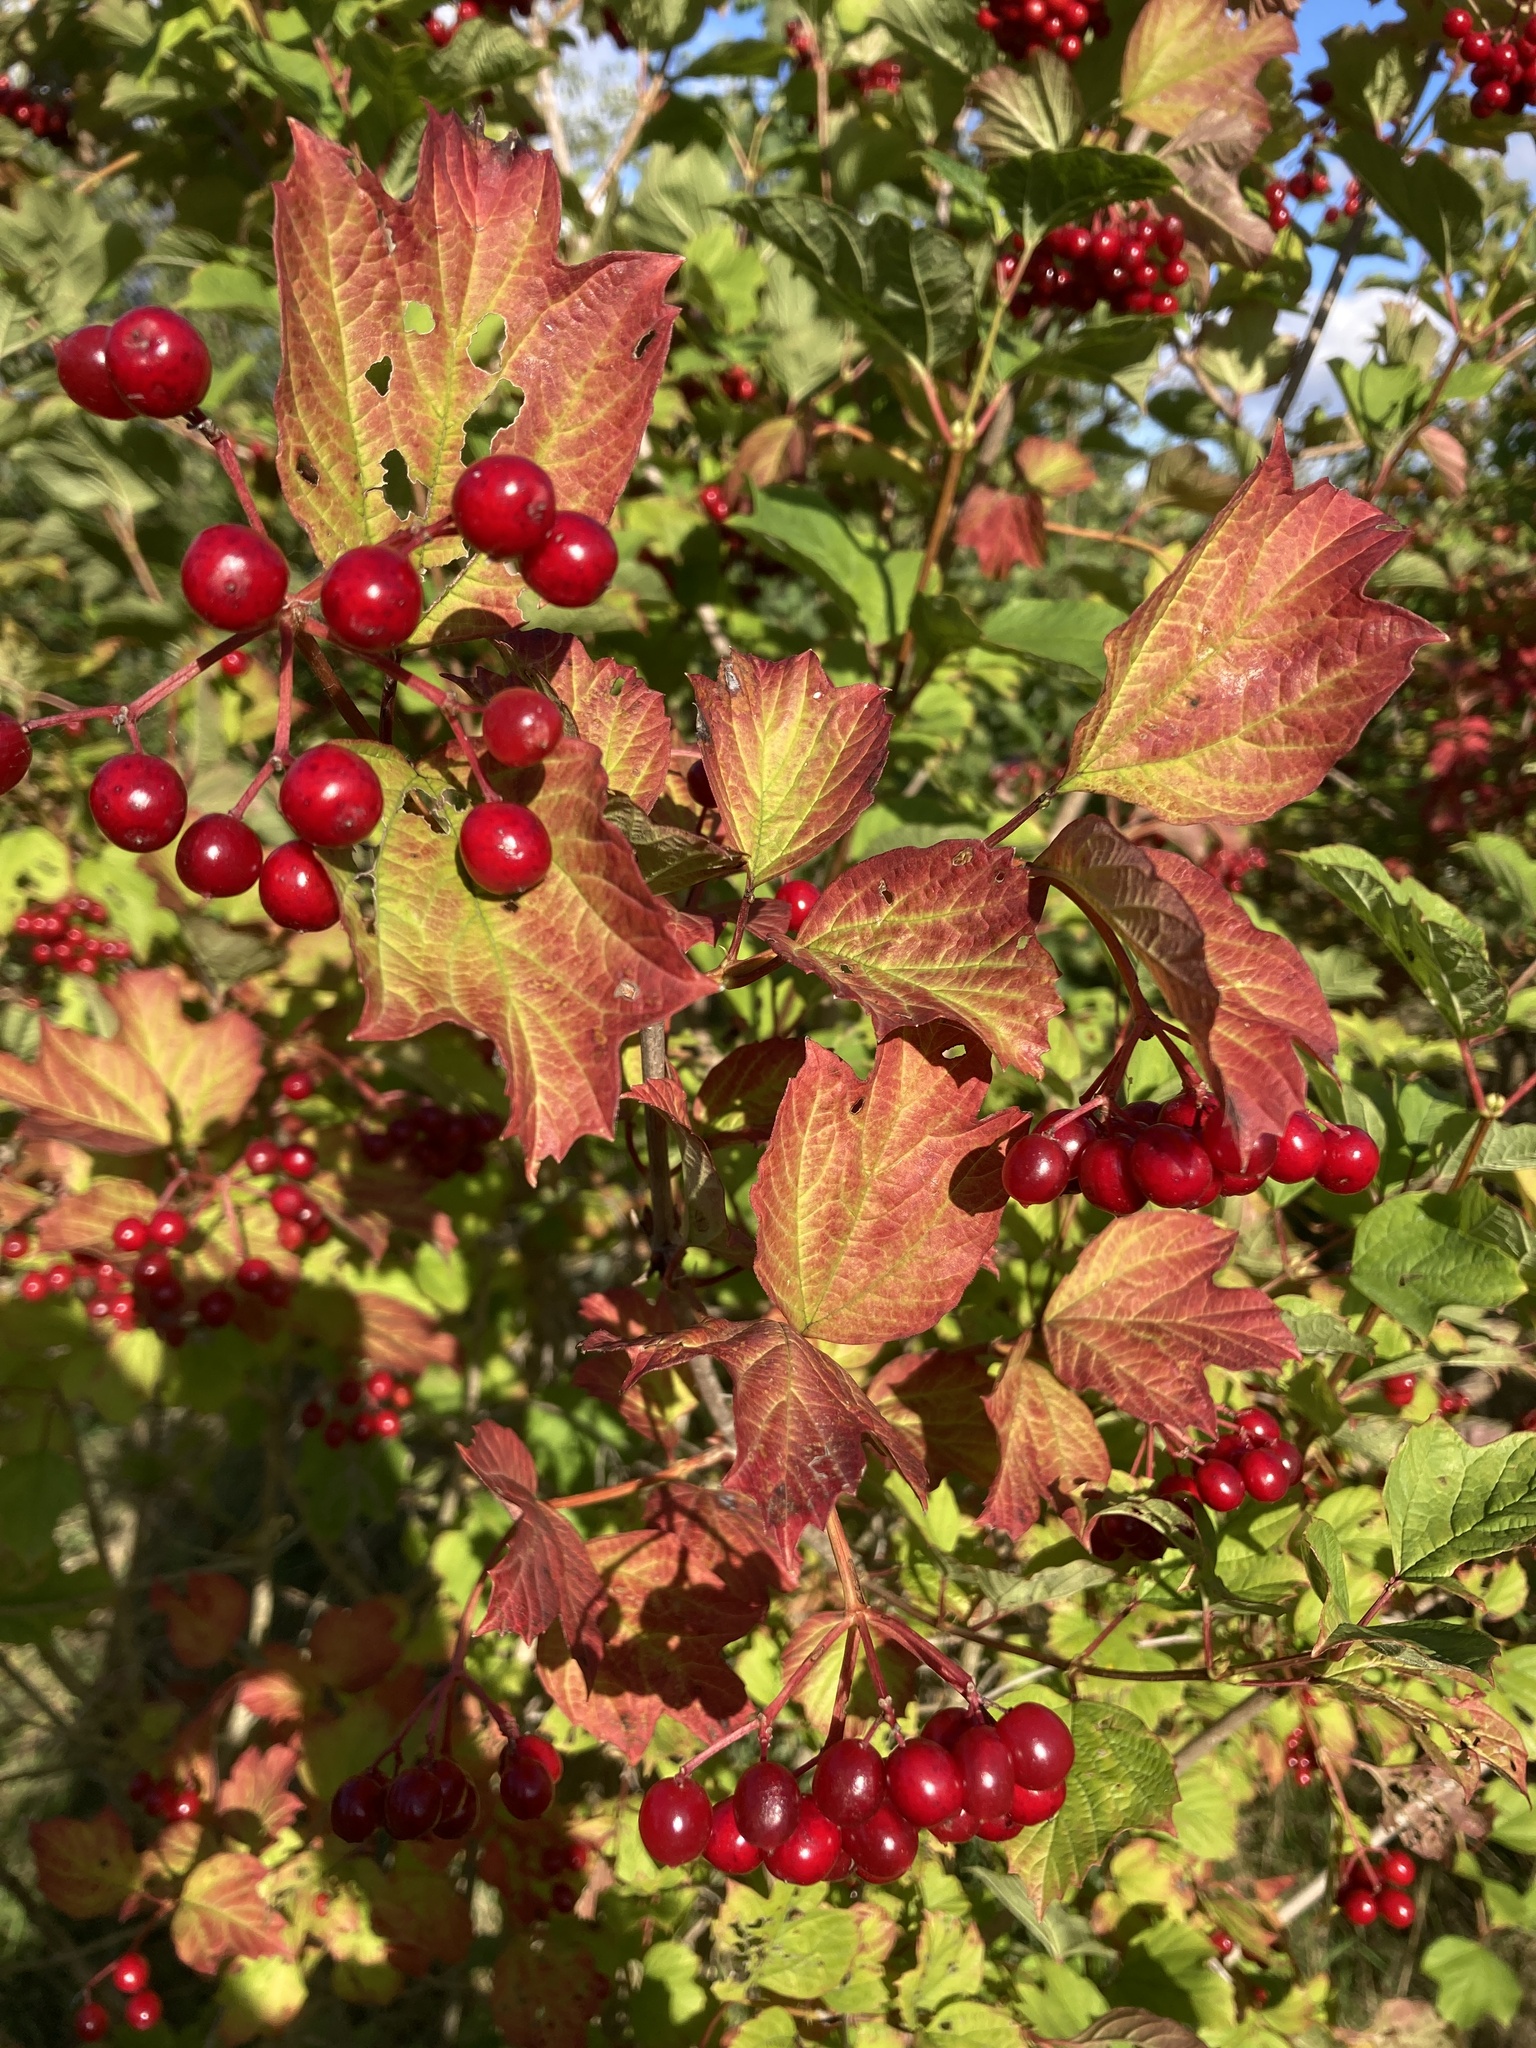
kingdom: Plantae
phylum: Tracheophyta
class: Magnoliopsida
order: Dipsacales
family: Viburnaceae
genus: Viburnum
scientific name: Viburnum opulus
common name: Guelder-rose
